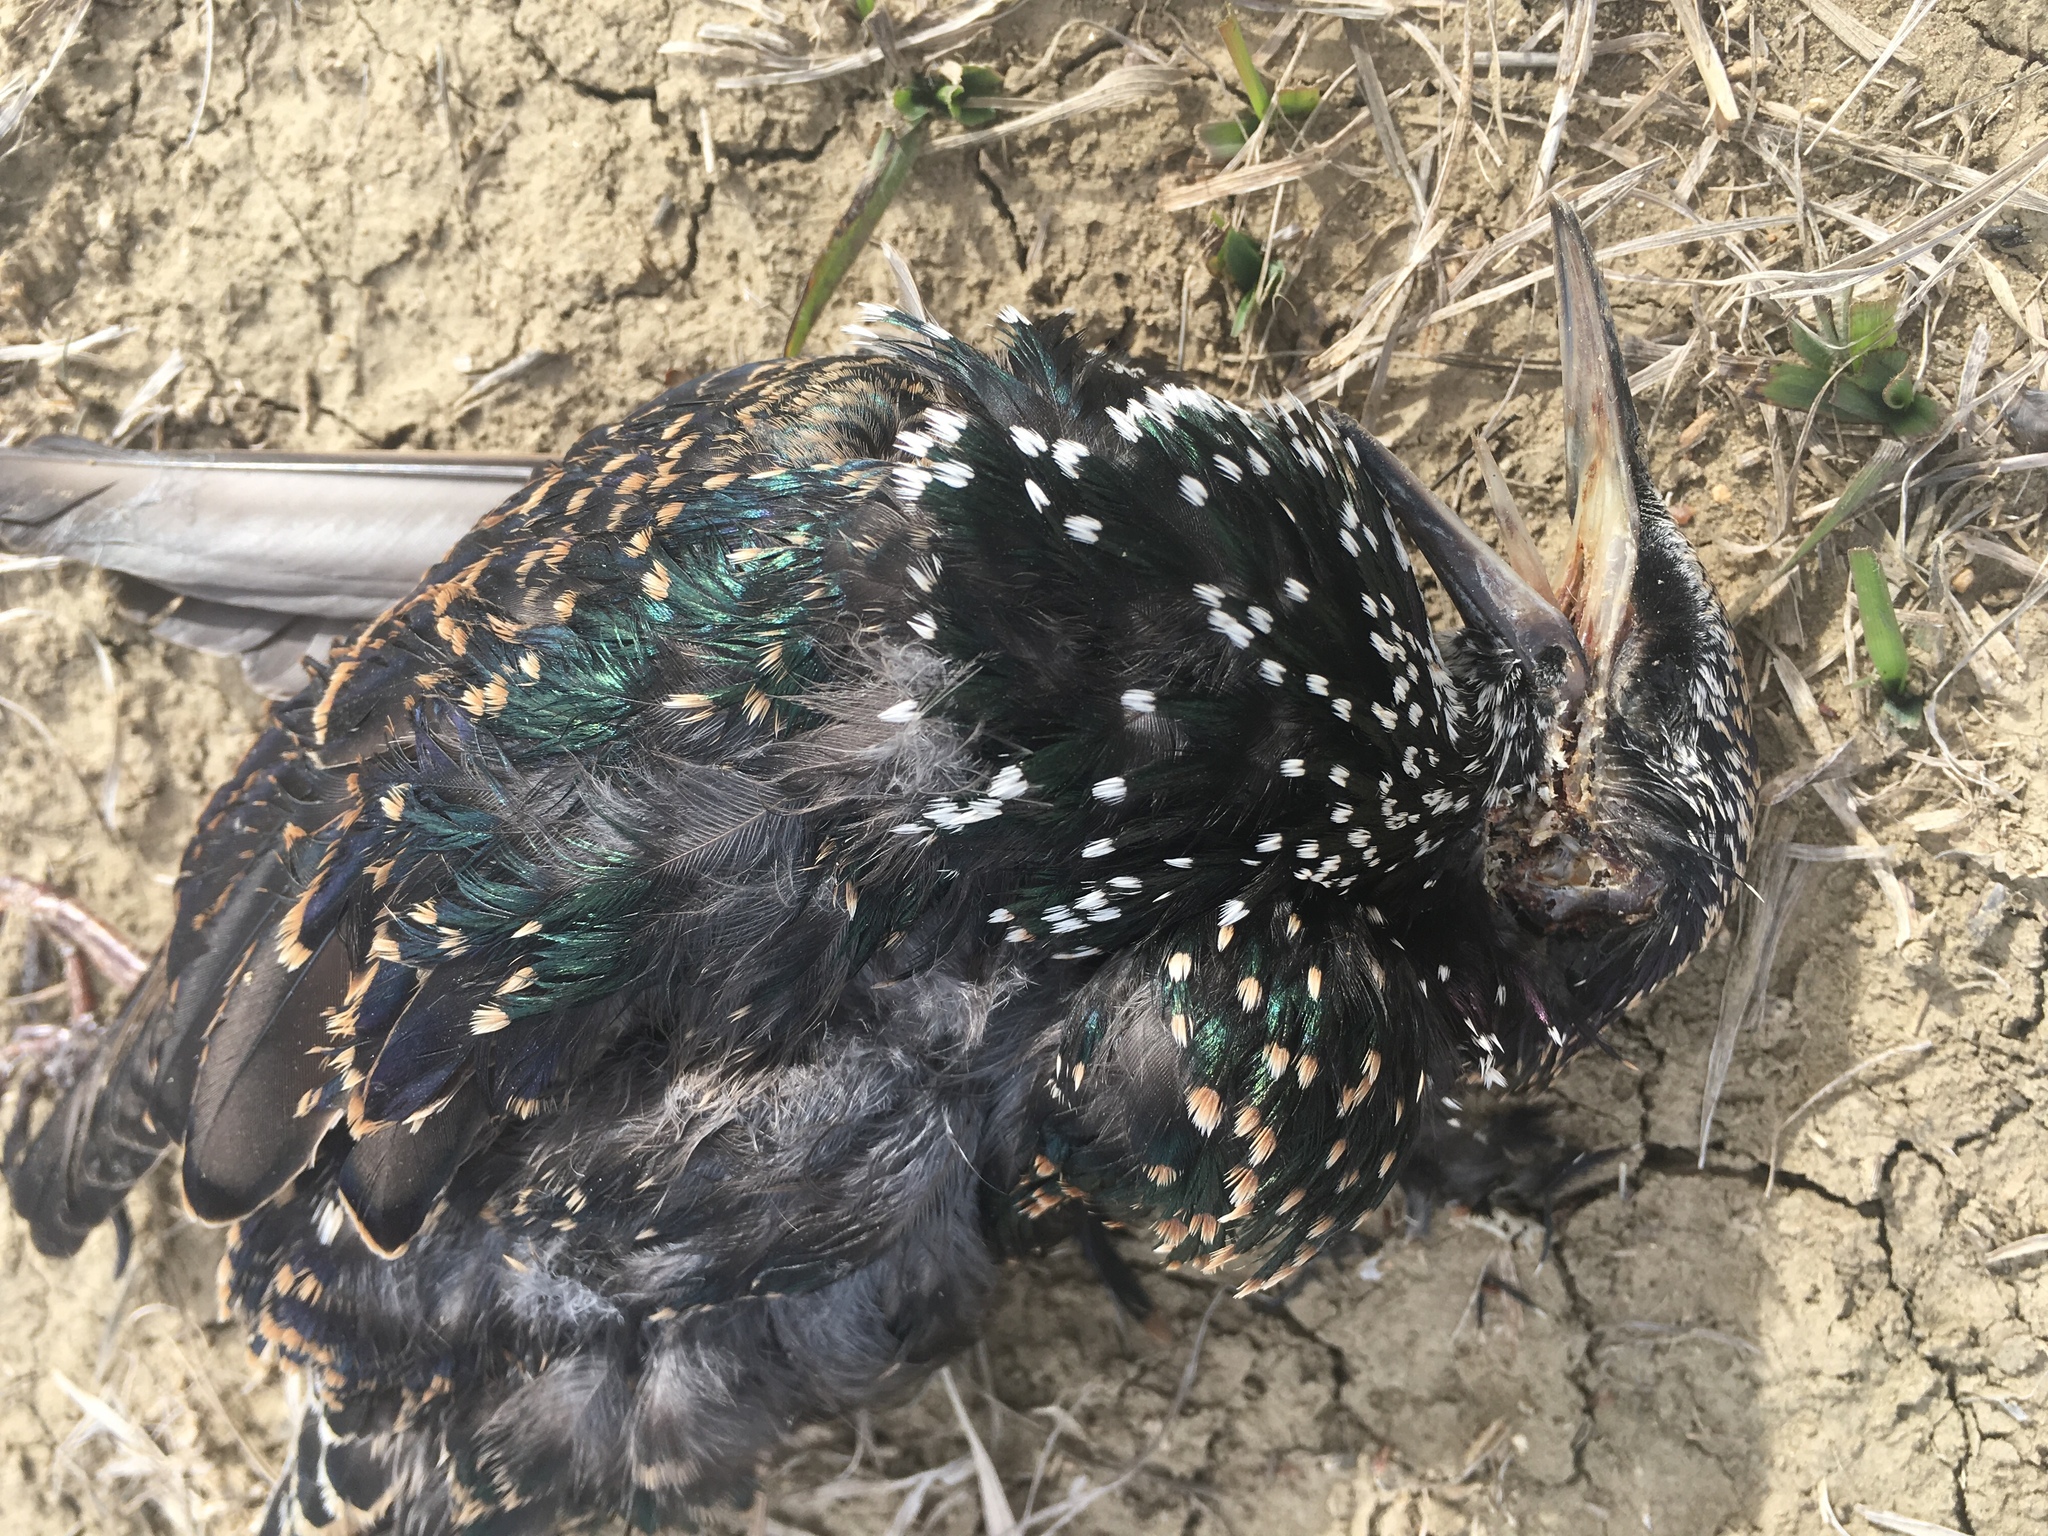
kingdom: Animalia
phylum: Chordata
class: Aves
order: Passeriformes
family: Sturnidae
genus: Sturnus
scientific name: Sturnus vulgaris
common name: Common starling
